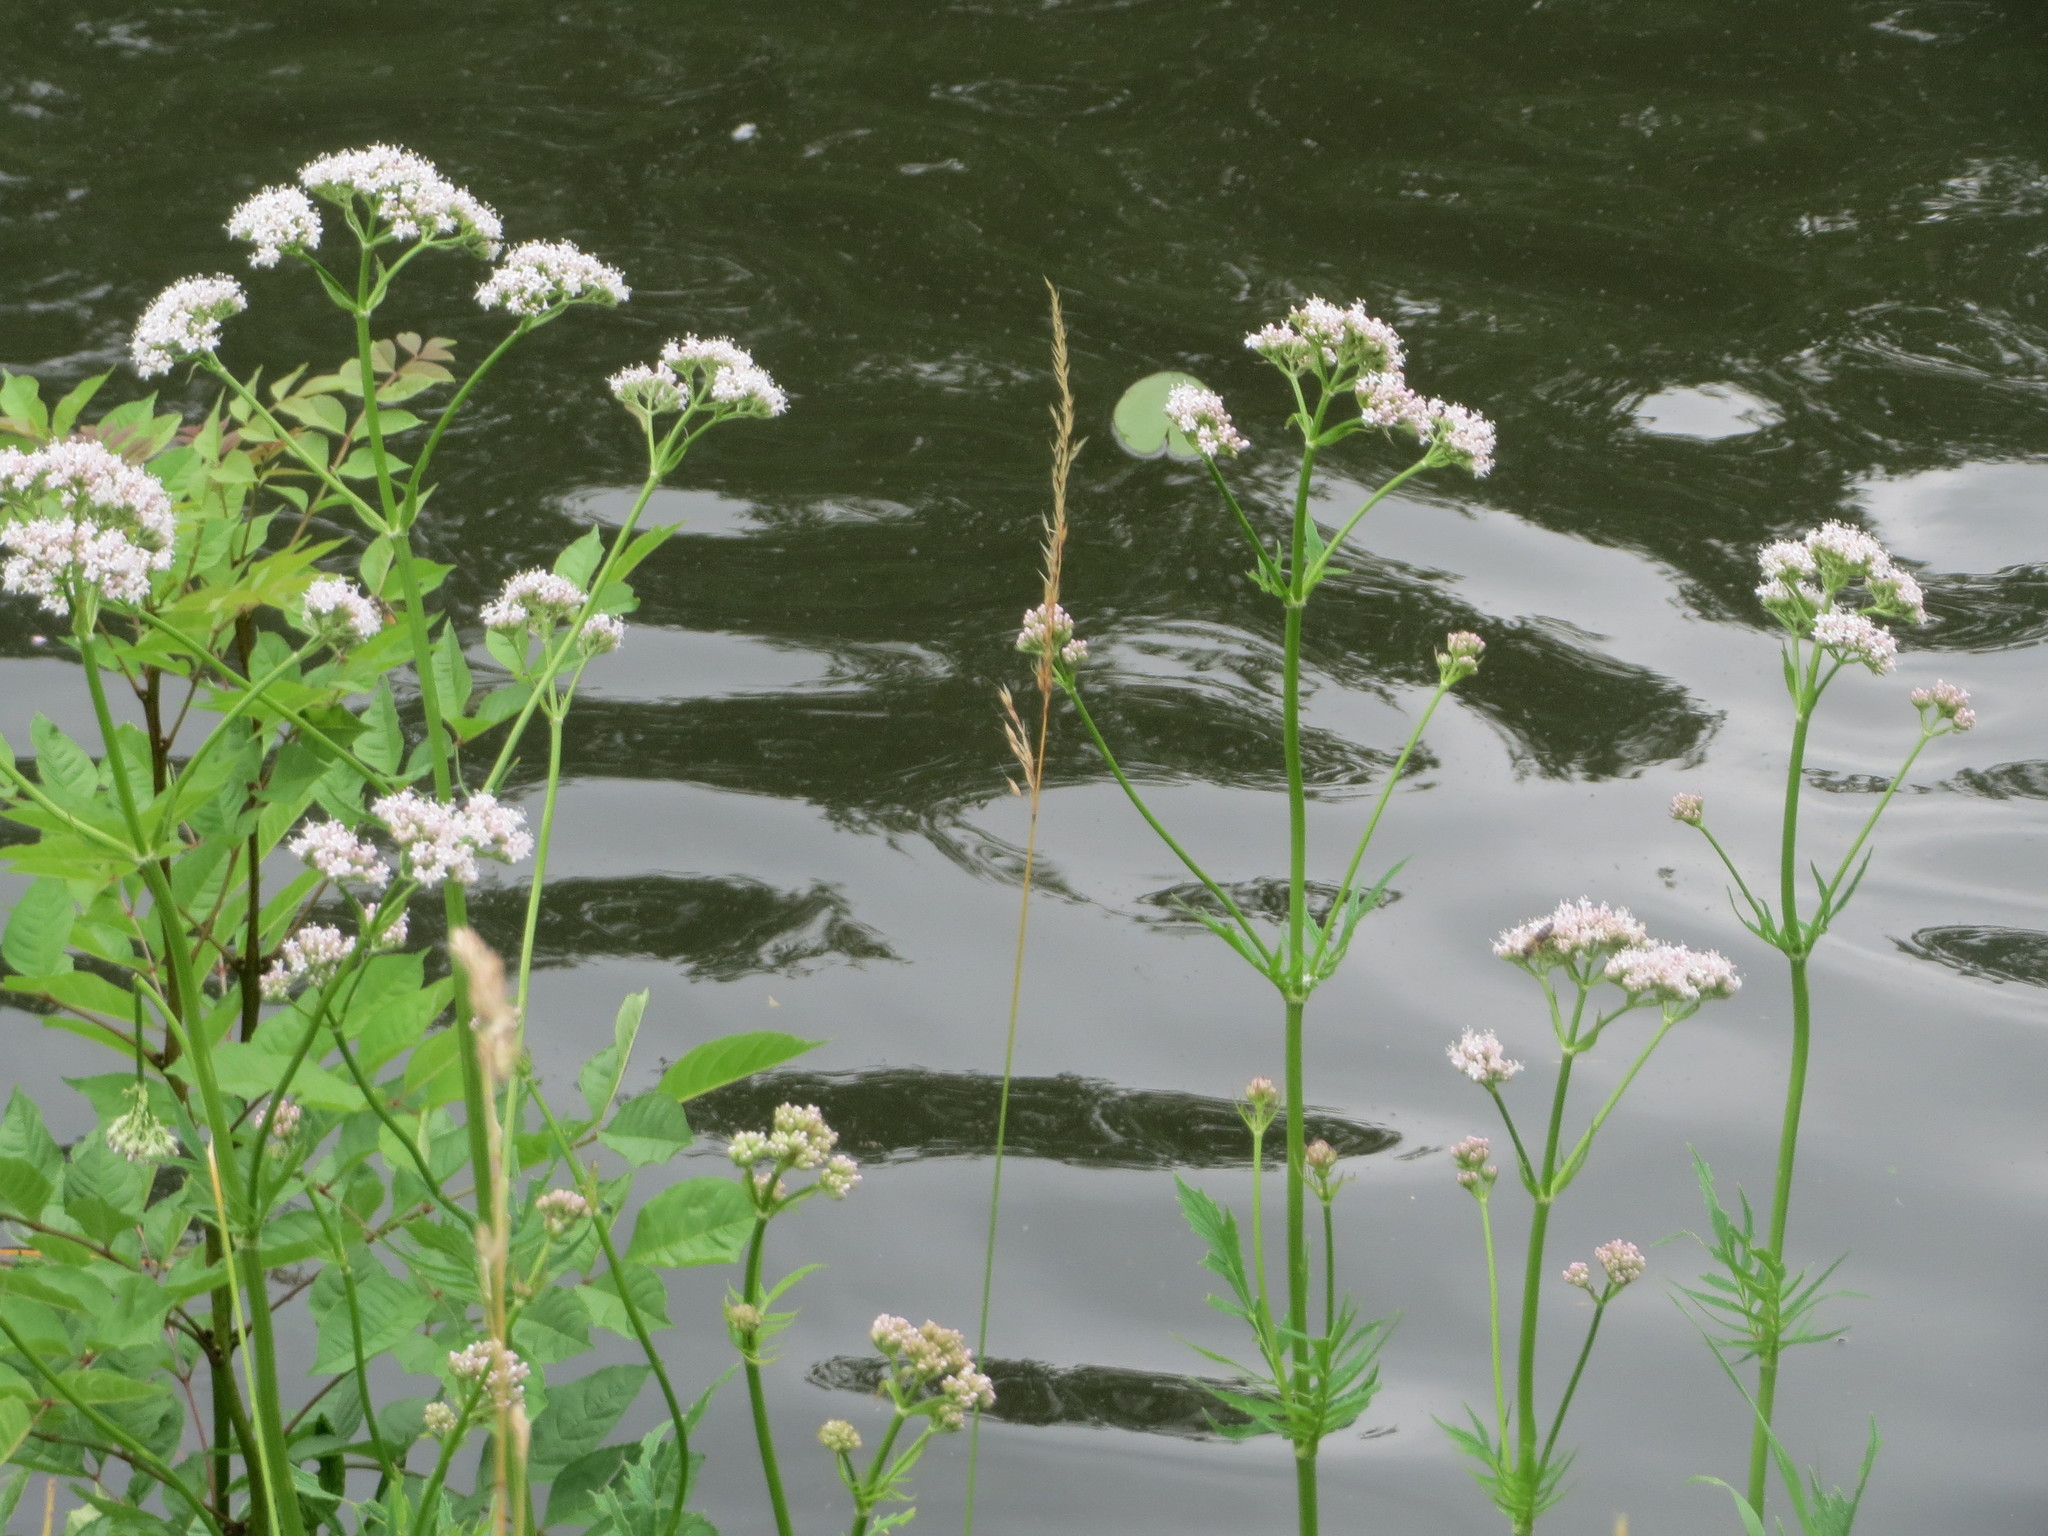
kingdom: Plantae
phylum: Tracheophyta
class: Magnoliopsida
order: Dipsacales
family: Caprifoliaceae
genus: Valeriana
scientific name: Valeriana officinalis
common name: Common valerian
